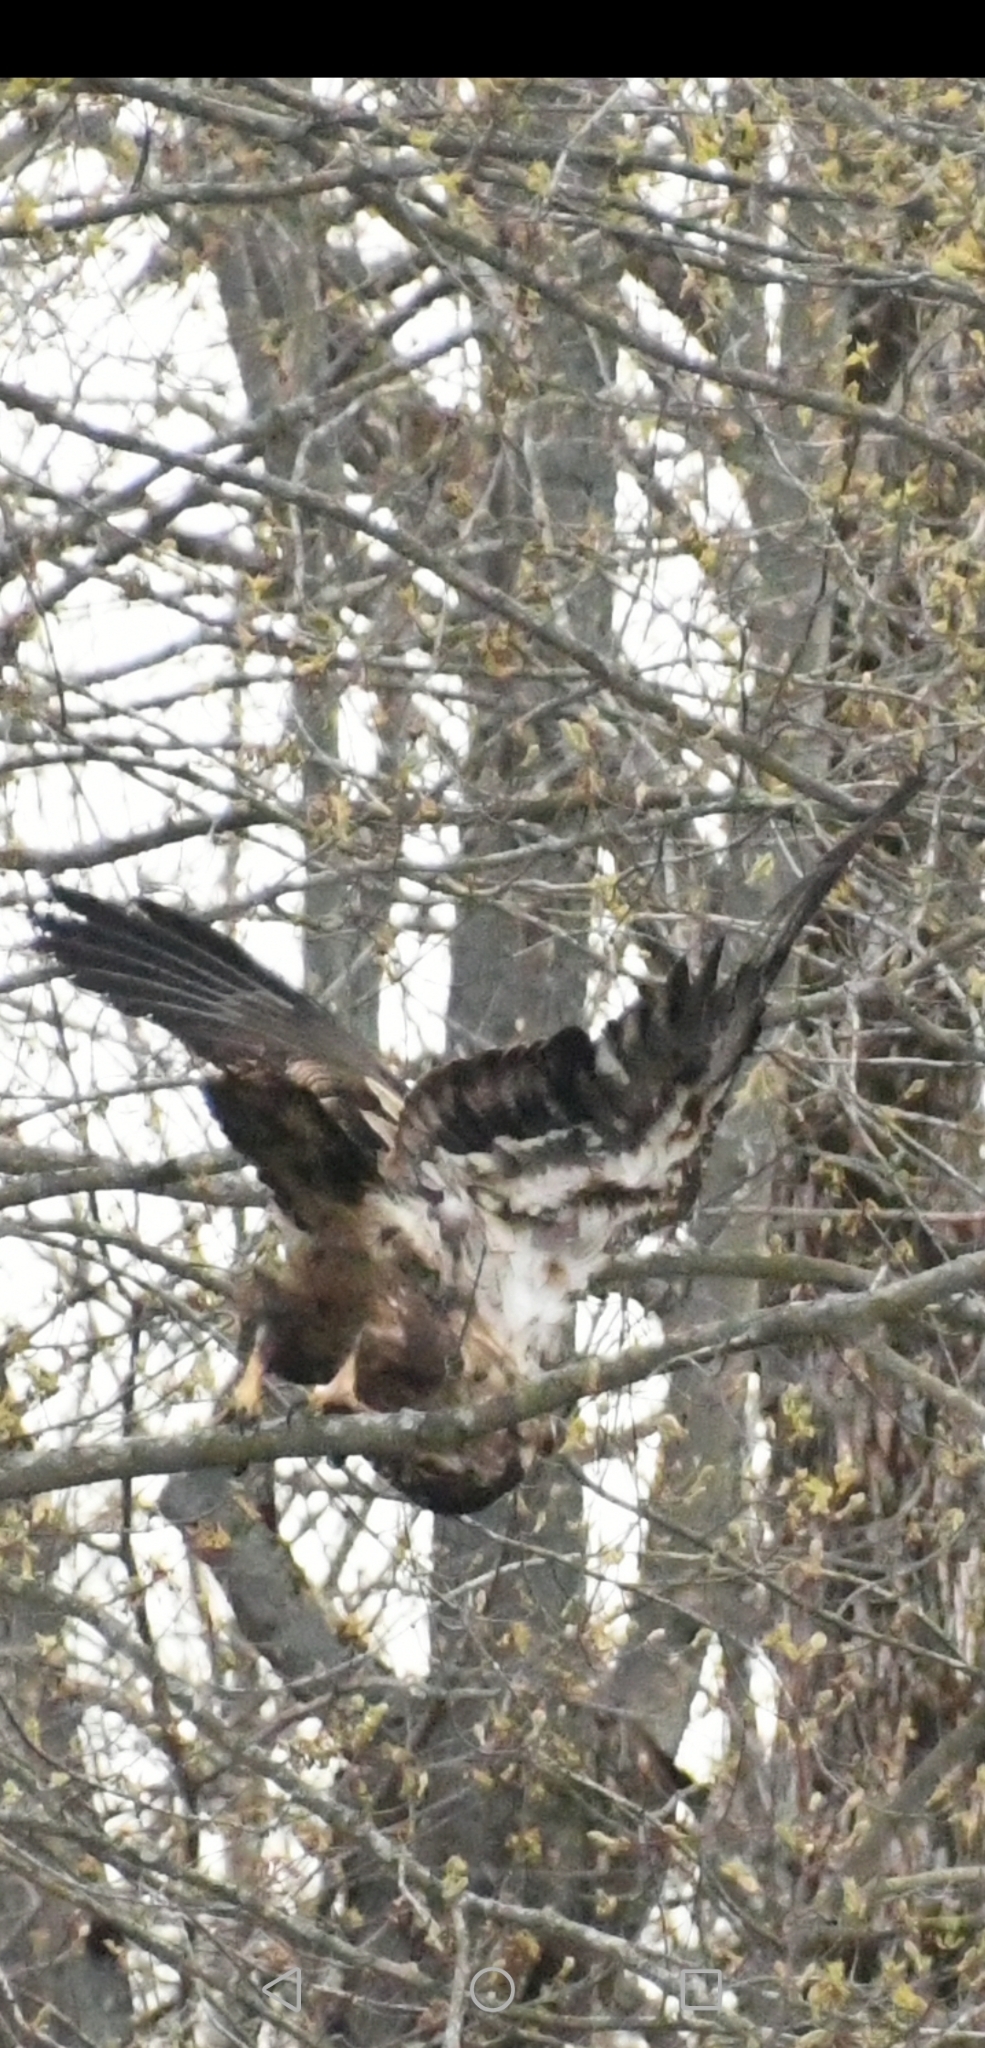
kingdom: Animalia
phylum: Chordata
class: Aves
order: Accipitriformes
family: Accipitridae
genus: Haliaeetus
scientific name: Haliaeetus leucocephalus
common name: Bald eagle
